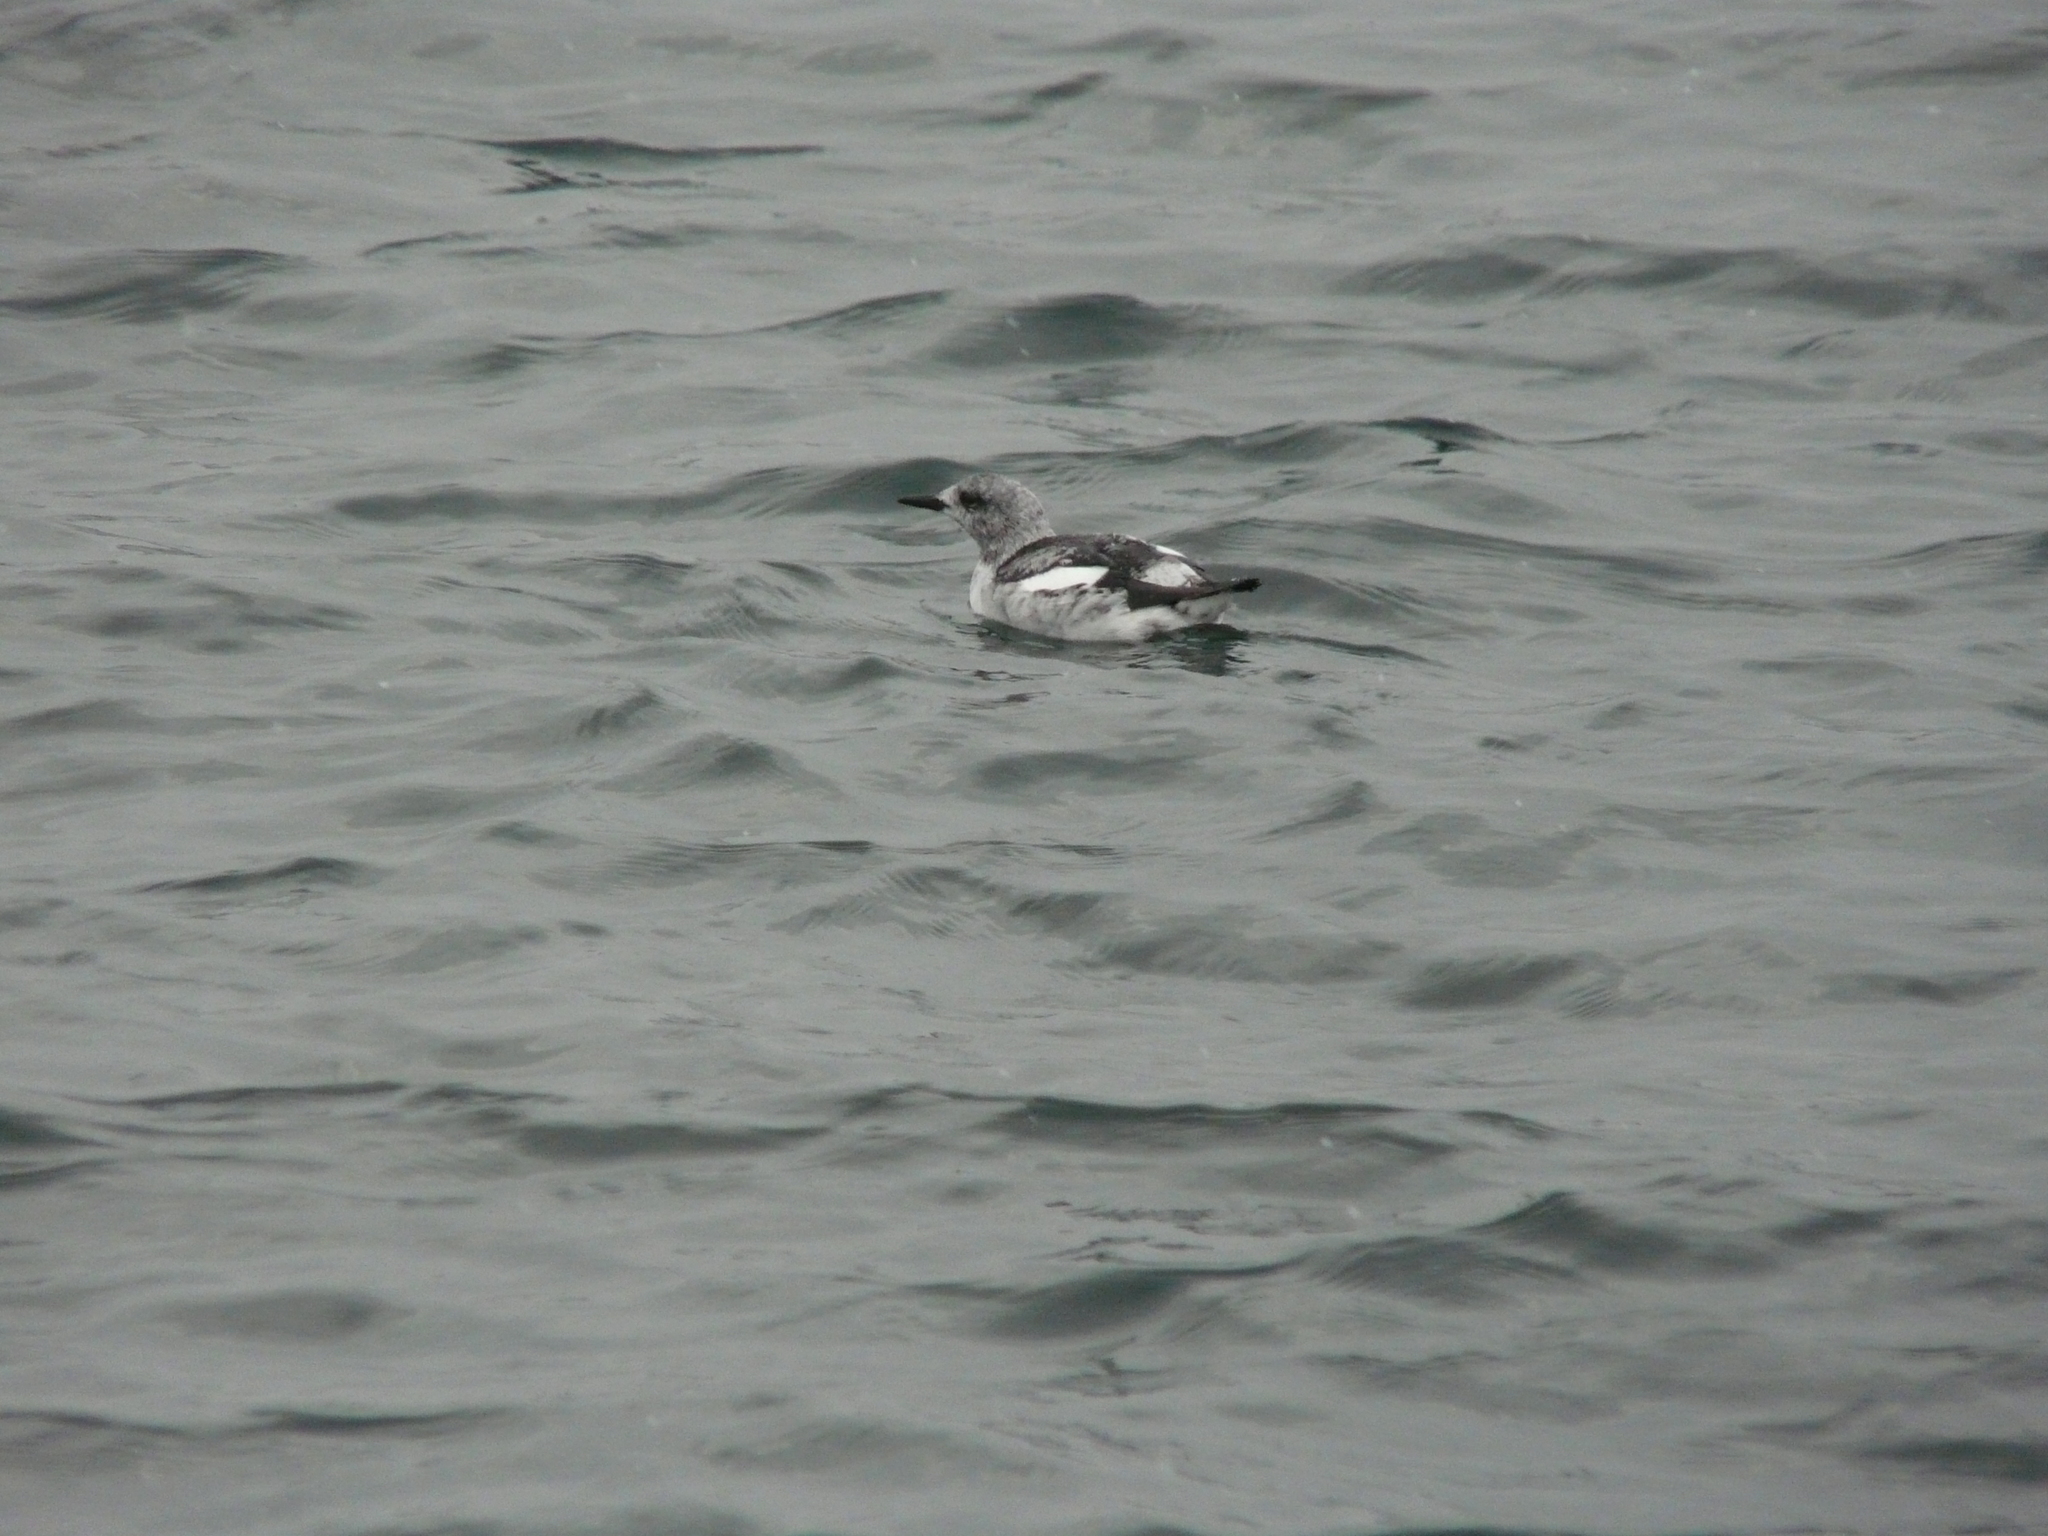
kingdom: Animalia
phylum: Chordata
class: Aves
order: Charadriiformes
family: Alcidae
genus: Cepphus
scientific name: Cepphus grylle
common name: Black guillemot
